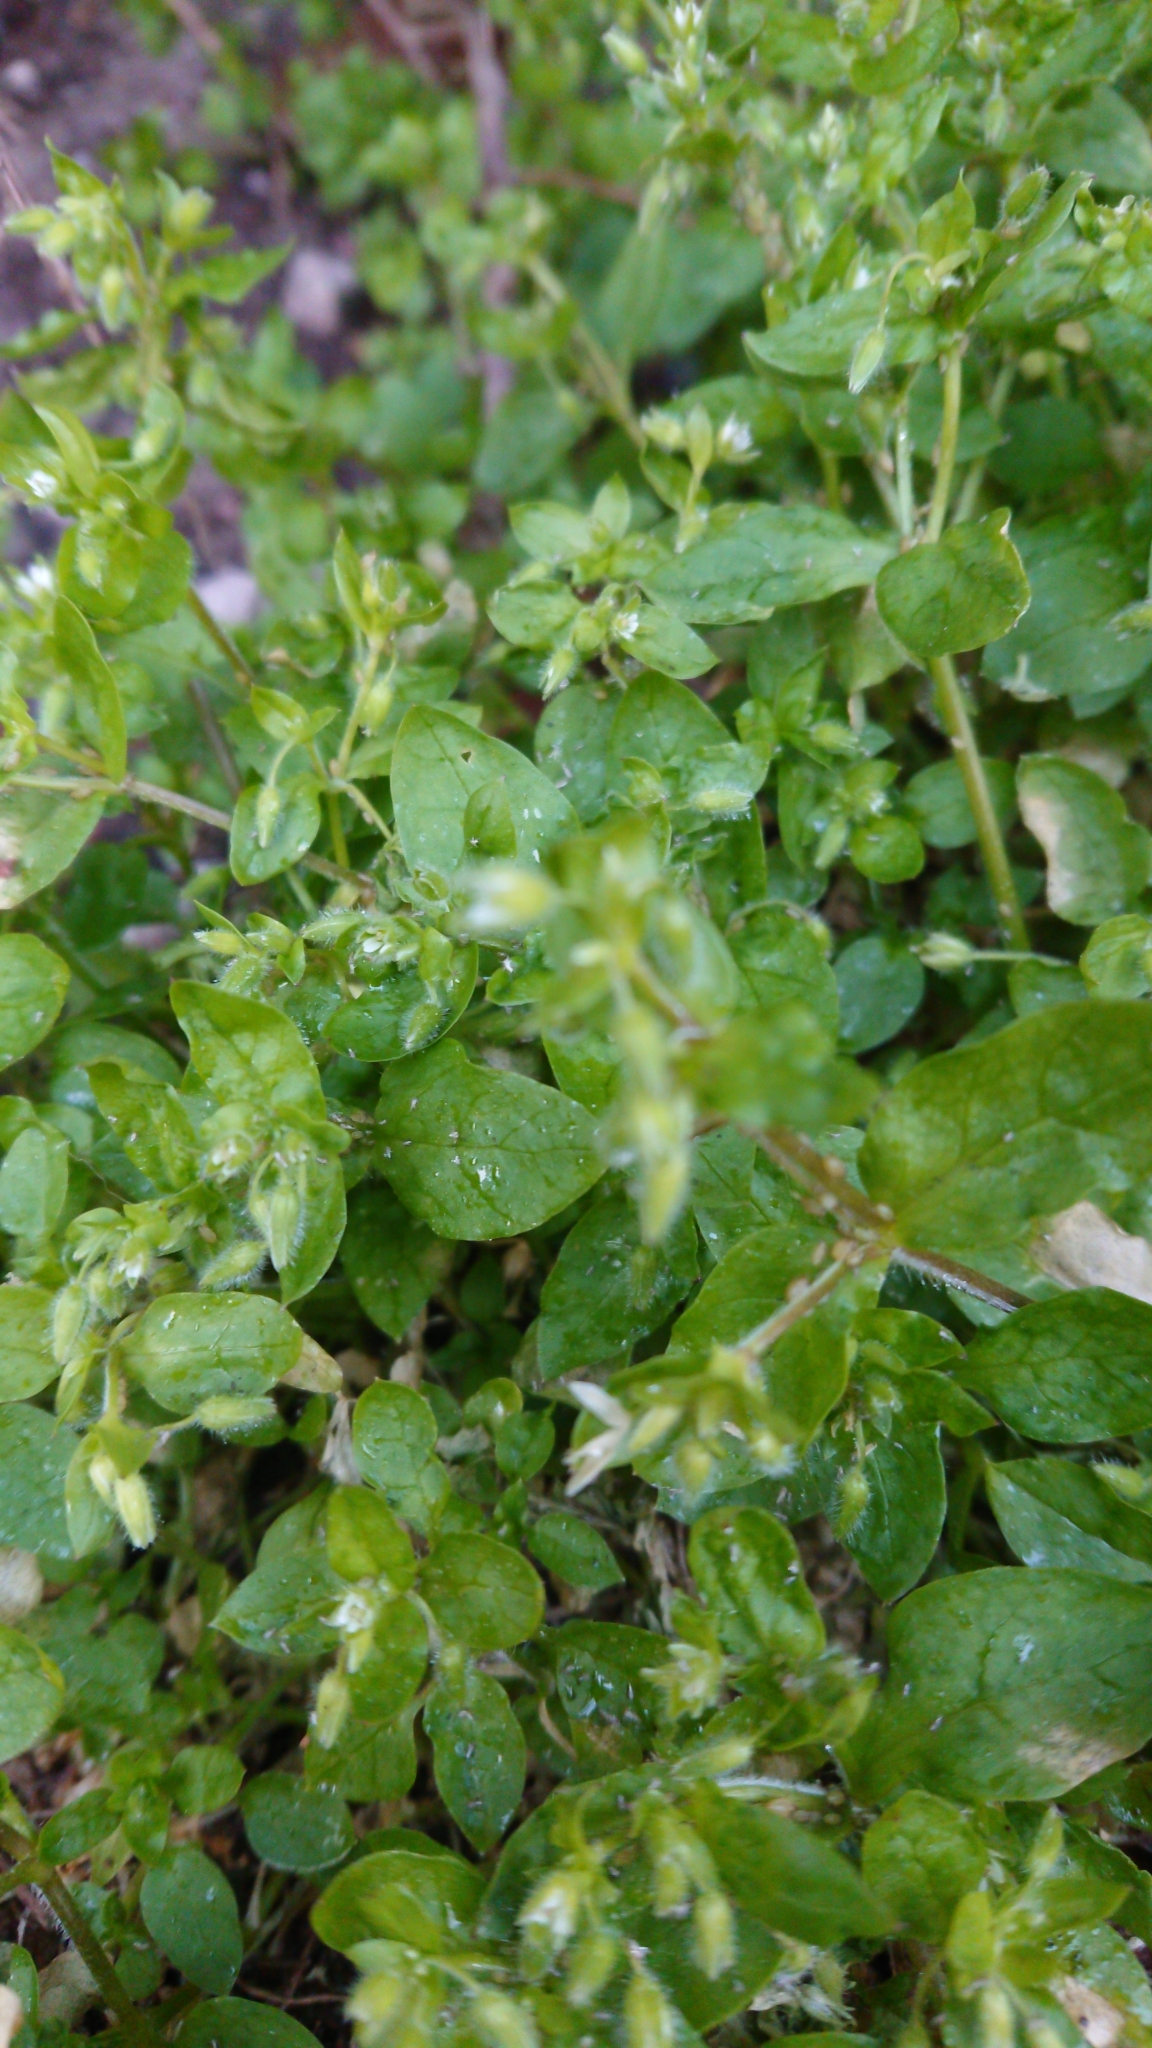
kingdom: Plantae
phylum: Tracheophyta
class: Magnoliopsida
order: Caryophyllales
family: Caryophyllaceae
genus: Stellaria
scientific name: Stellaria media
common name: Common chickweed
